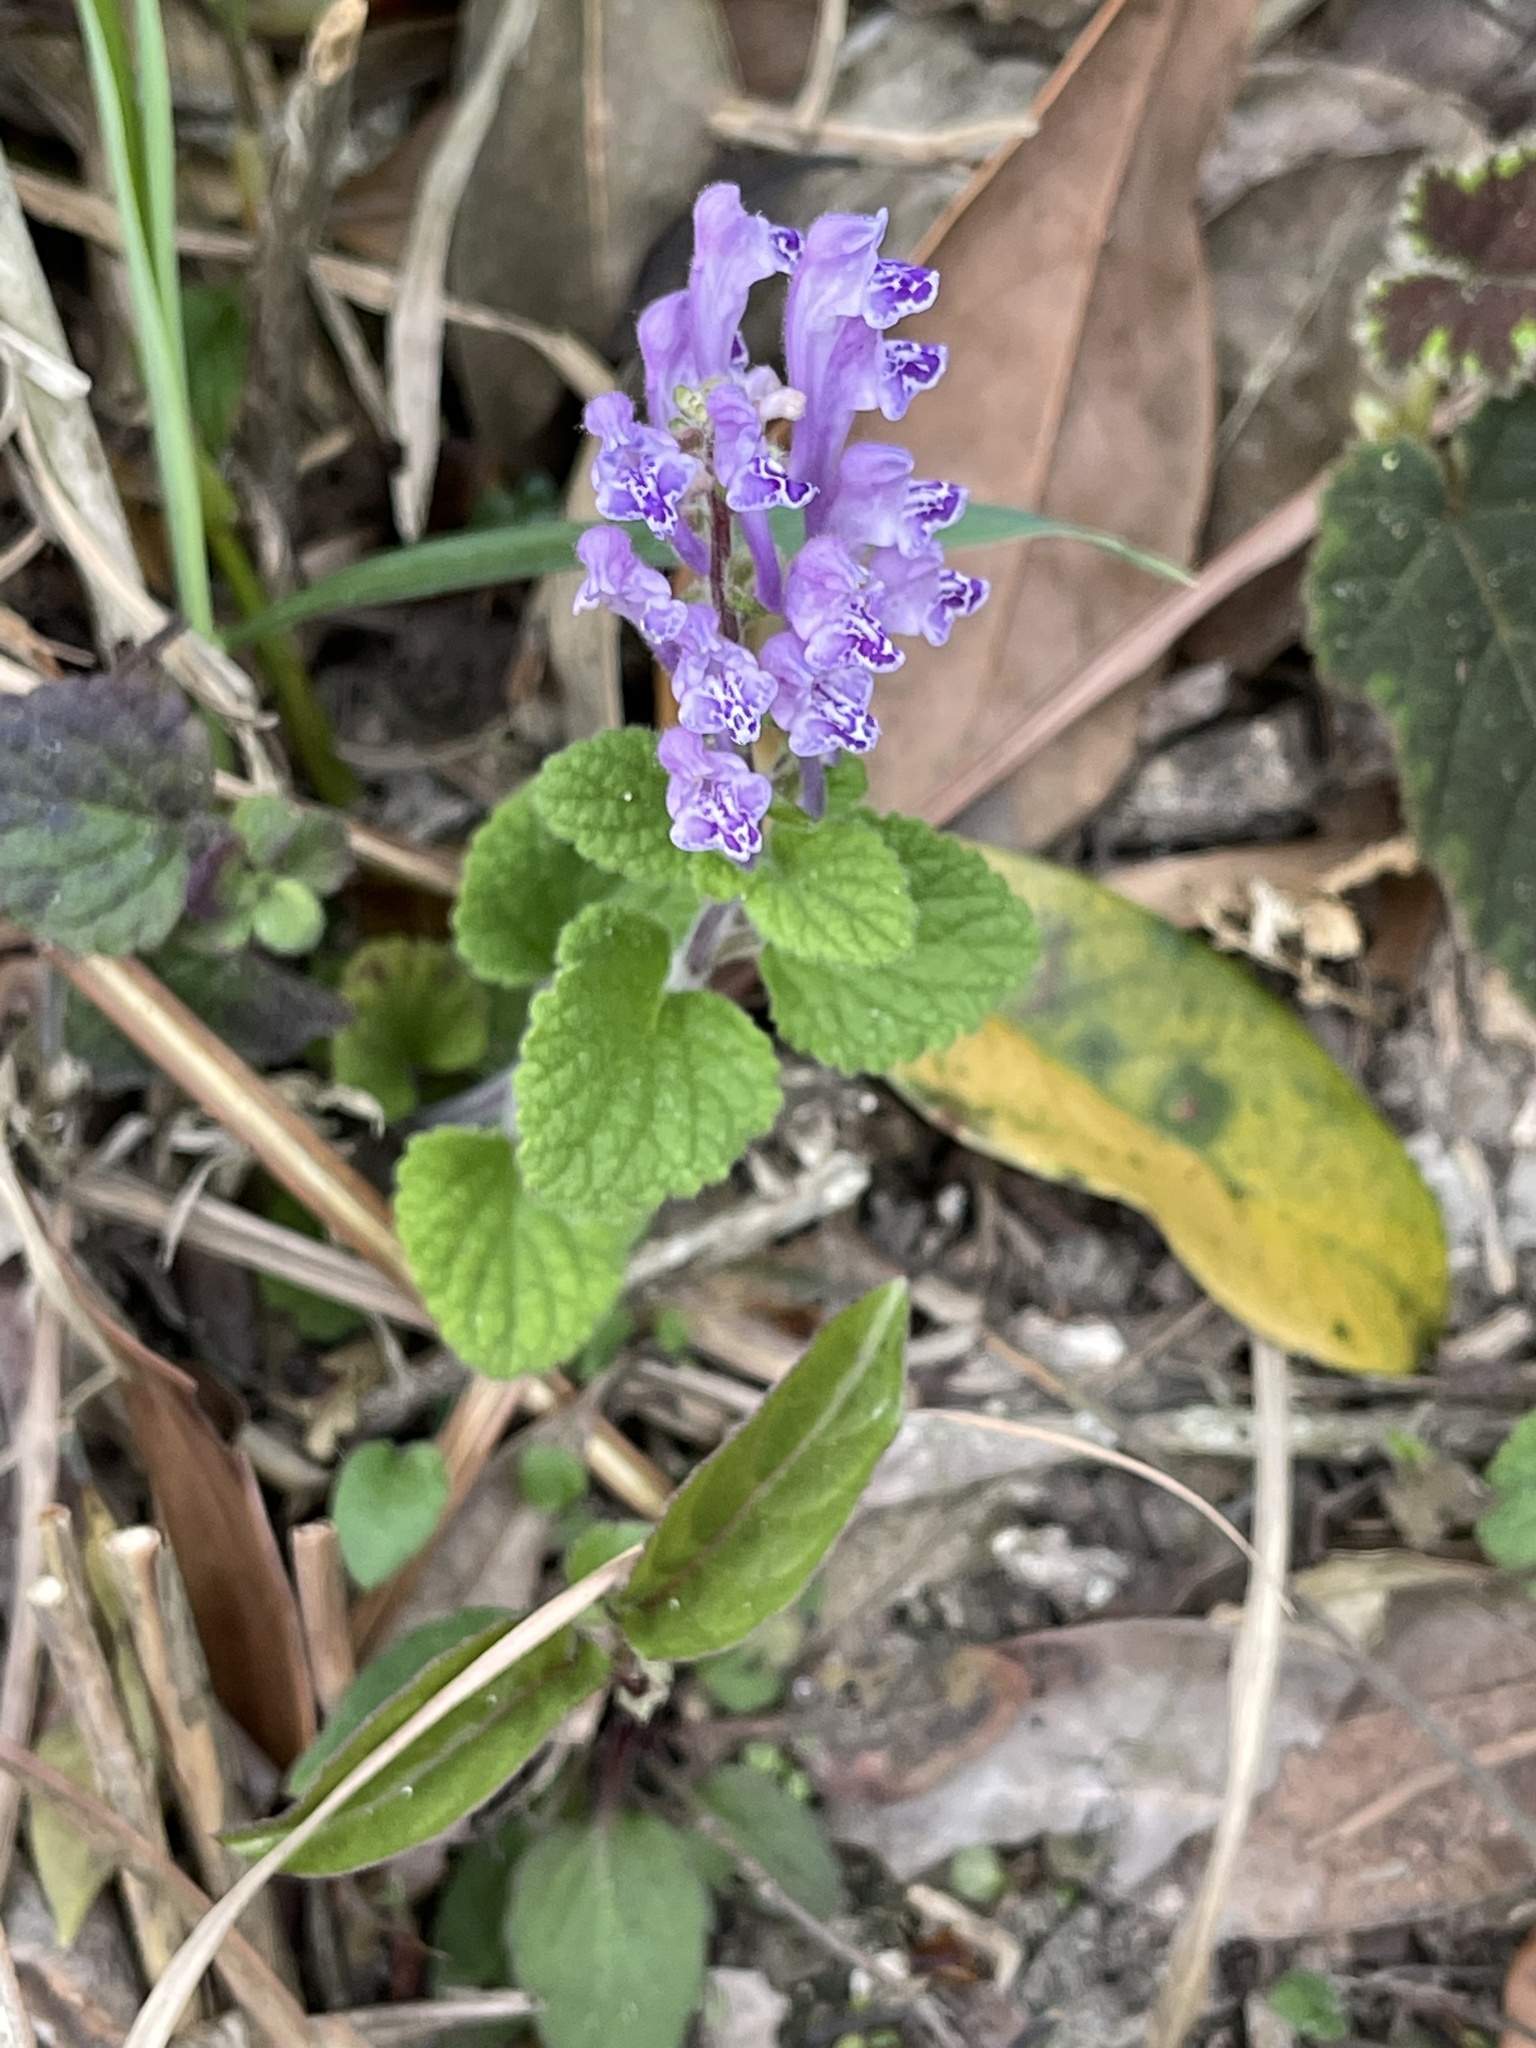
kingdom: Plantae
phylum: Tracheophyta
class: Magnoliopsida
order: Lamiales
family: Lamiaceae
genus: Scutellaria
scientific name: Scutellaria indica
